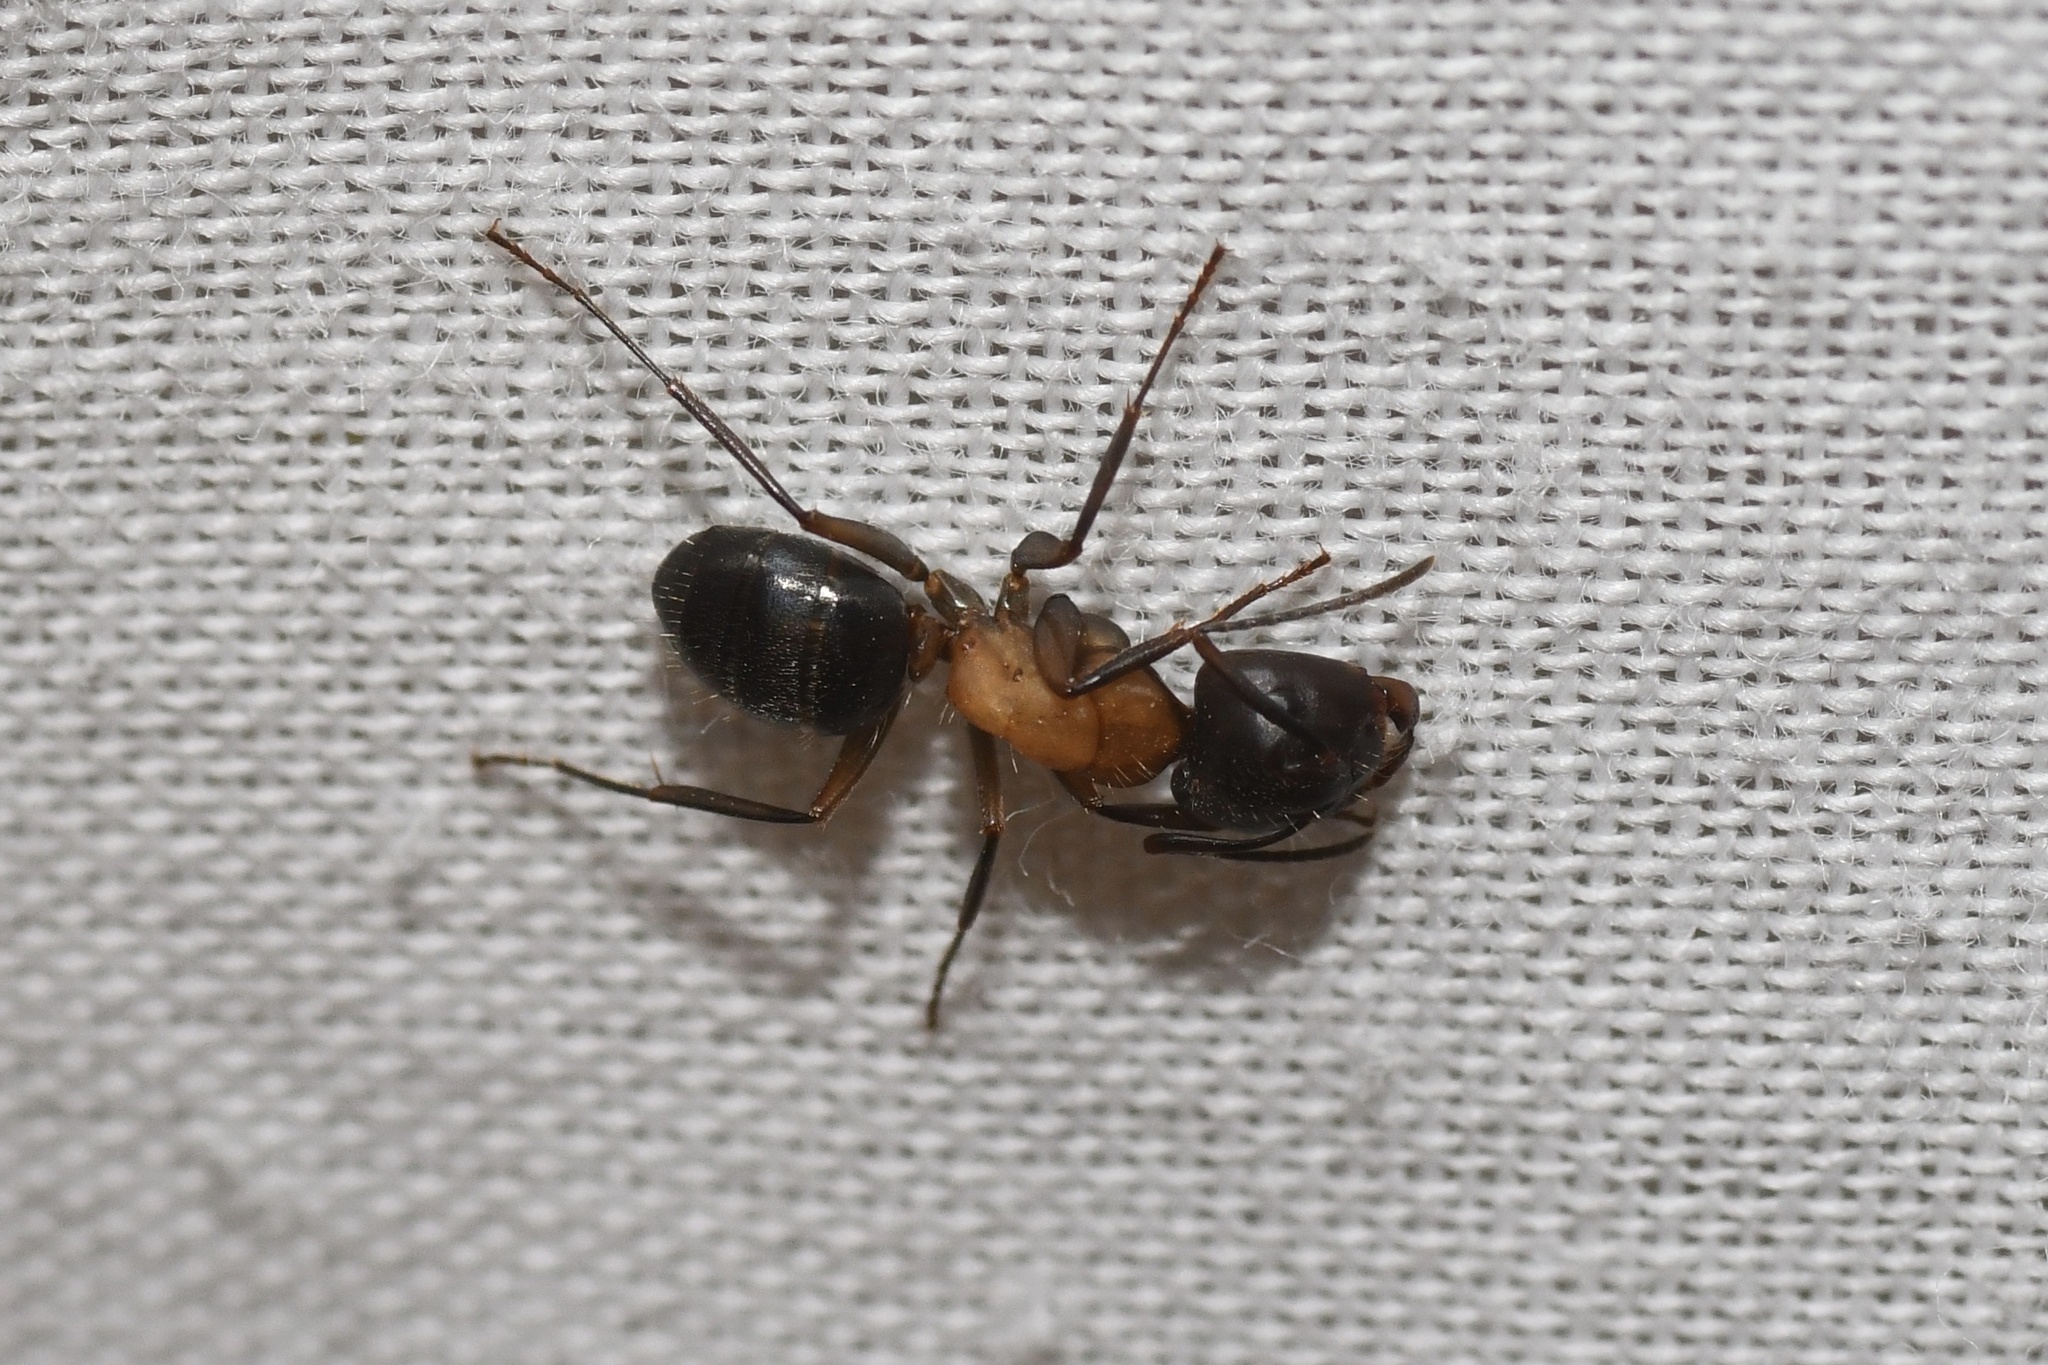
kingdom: Animalia
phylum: Arthropoda
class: Insecta
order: Hymenoptera
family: Formicidae
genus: Camponotus
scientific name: Camponotus novaeboracensis
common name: New york carpenter ant
